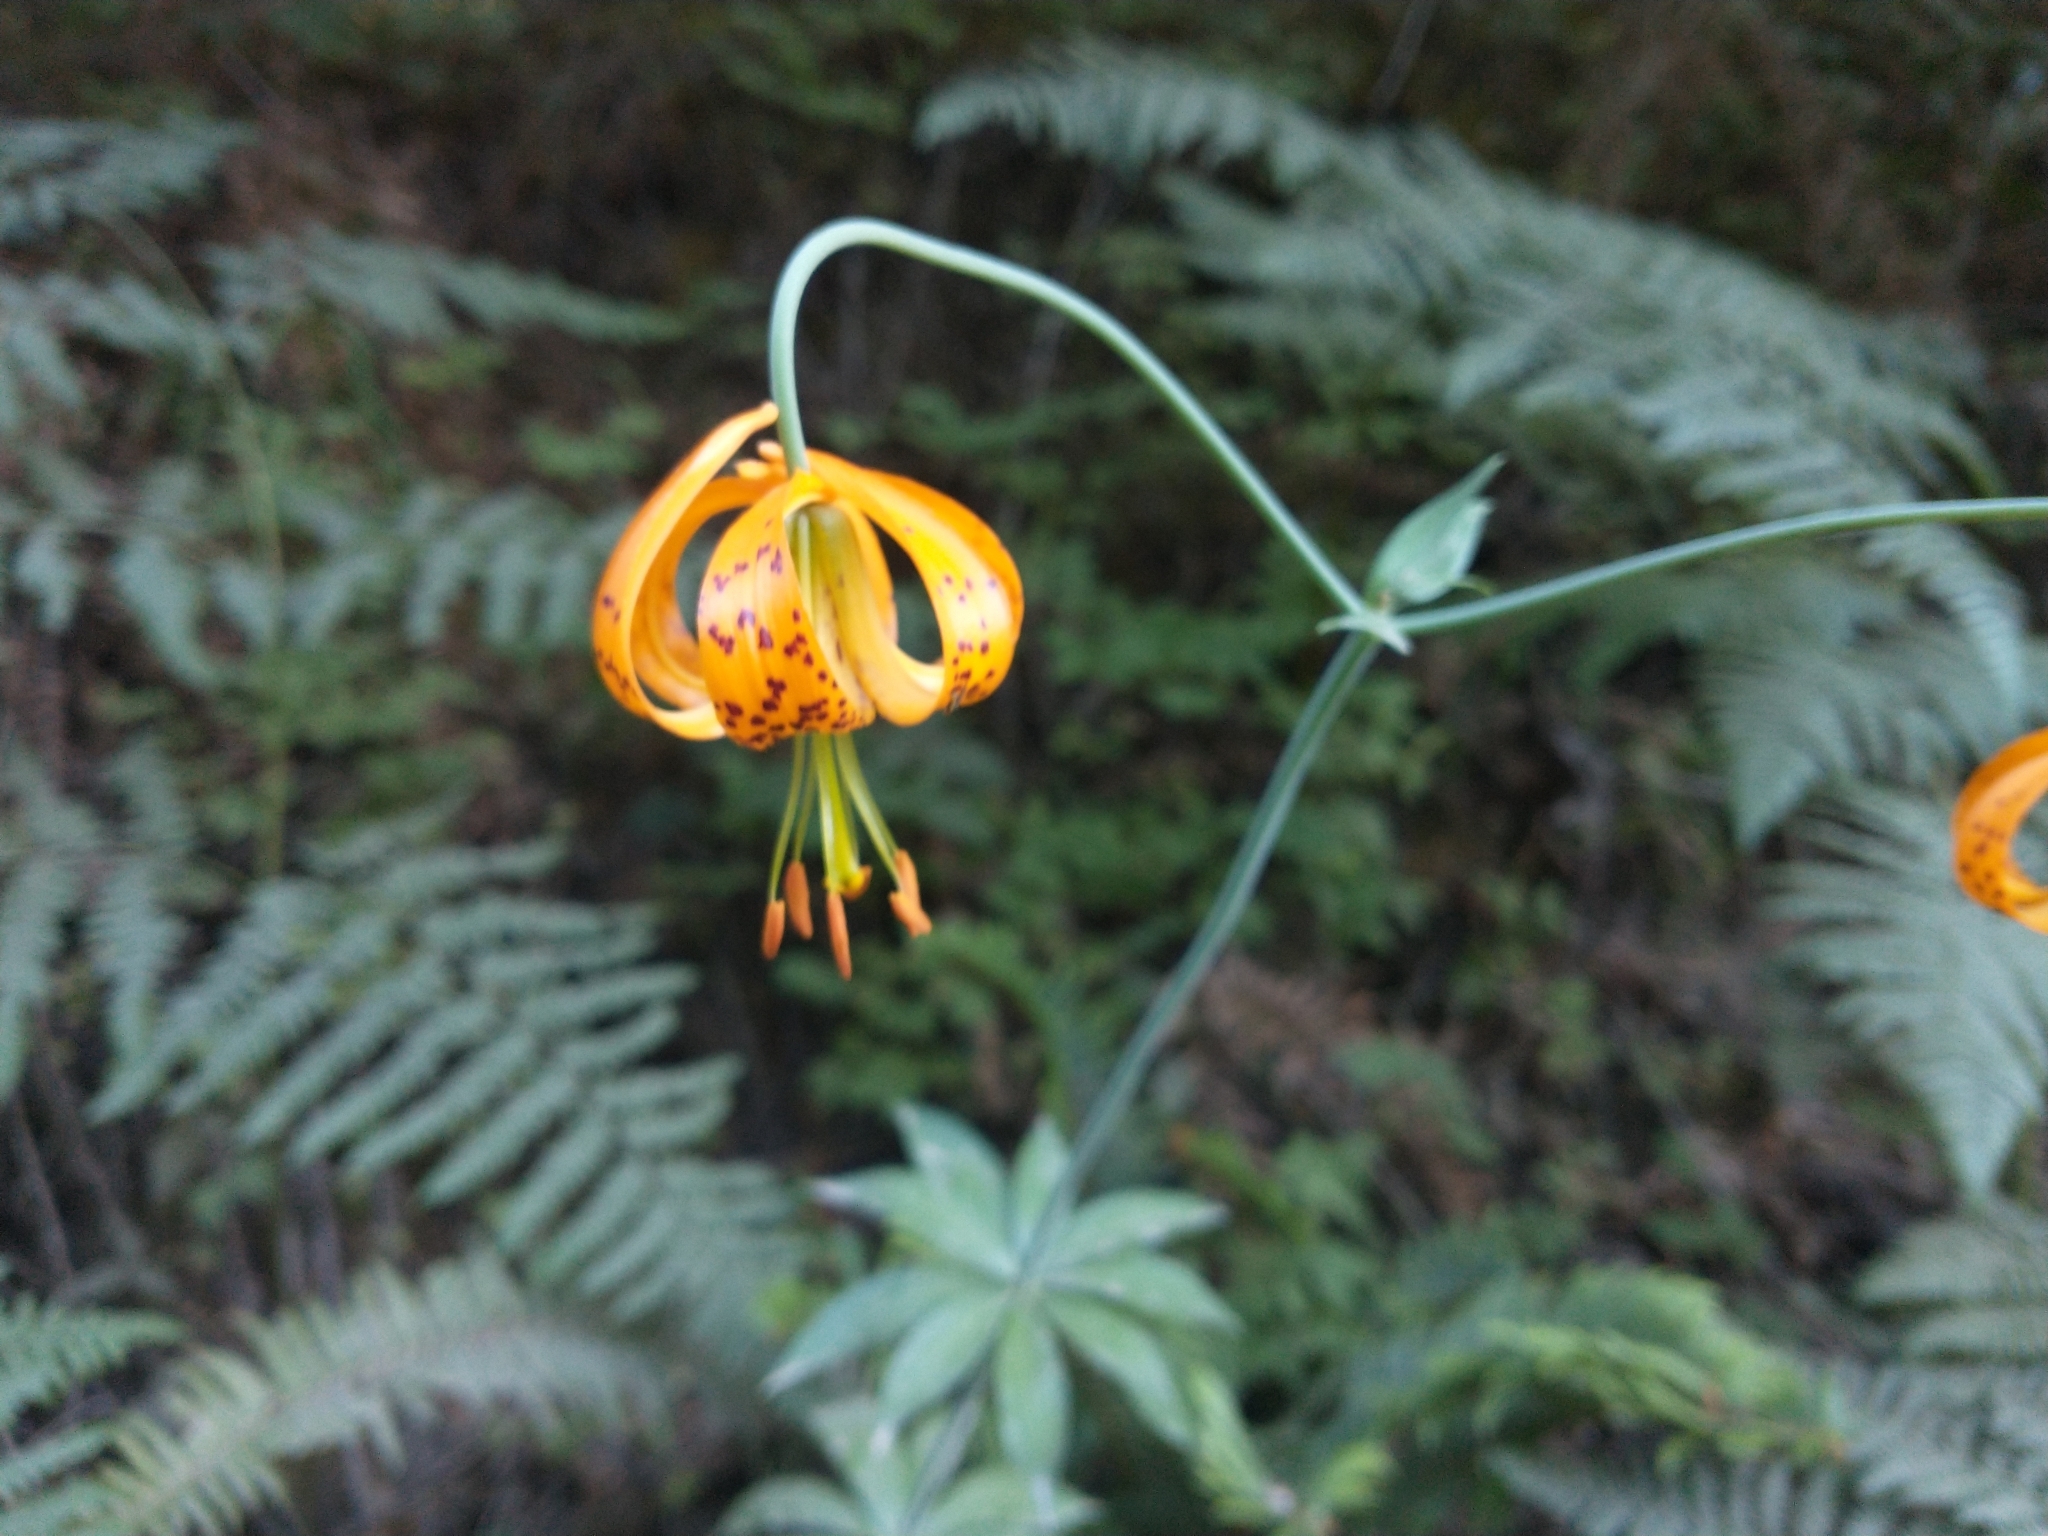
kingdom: Plantae
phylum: Tracheophyta
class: Liliopsida
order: Liliales
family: Liliaceae
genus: Lilium
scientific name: Lilium columbianum
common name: Columbia lily
